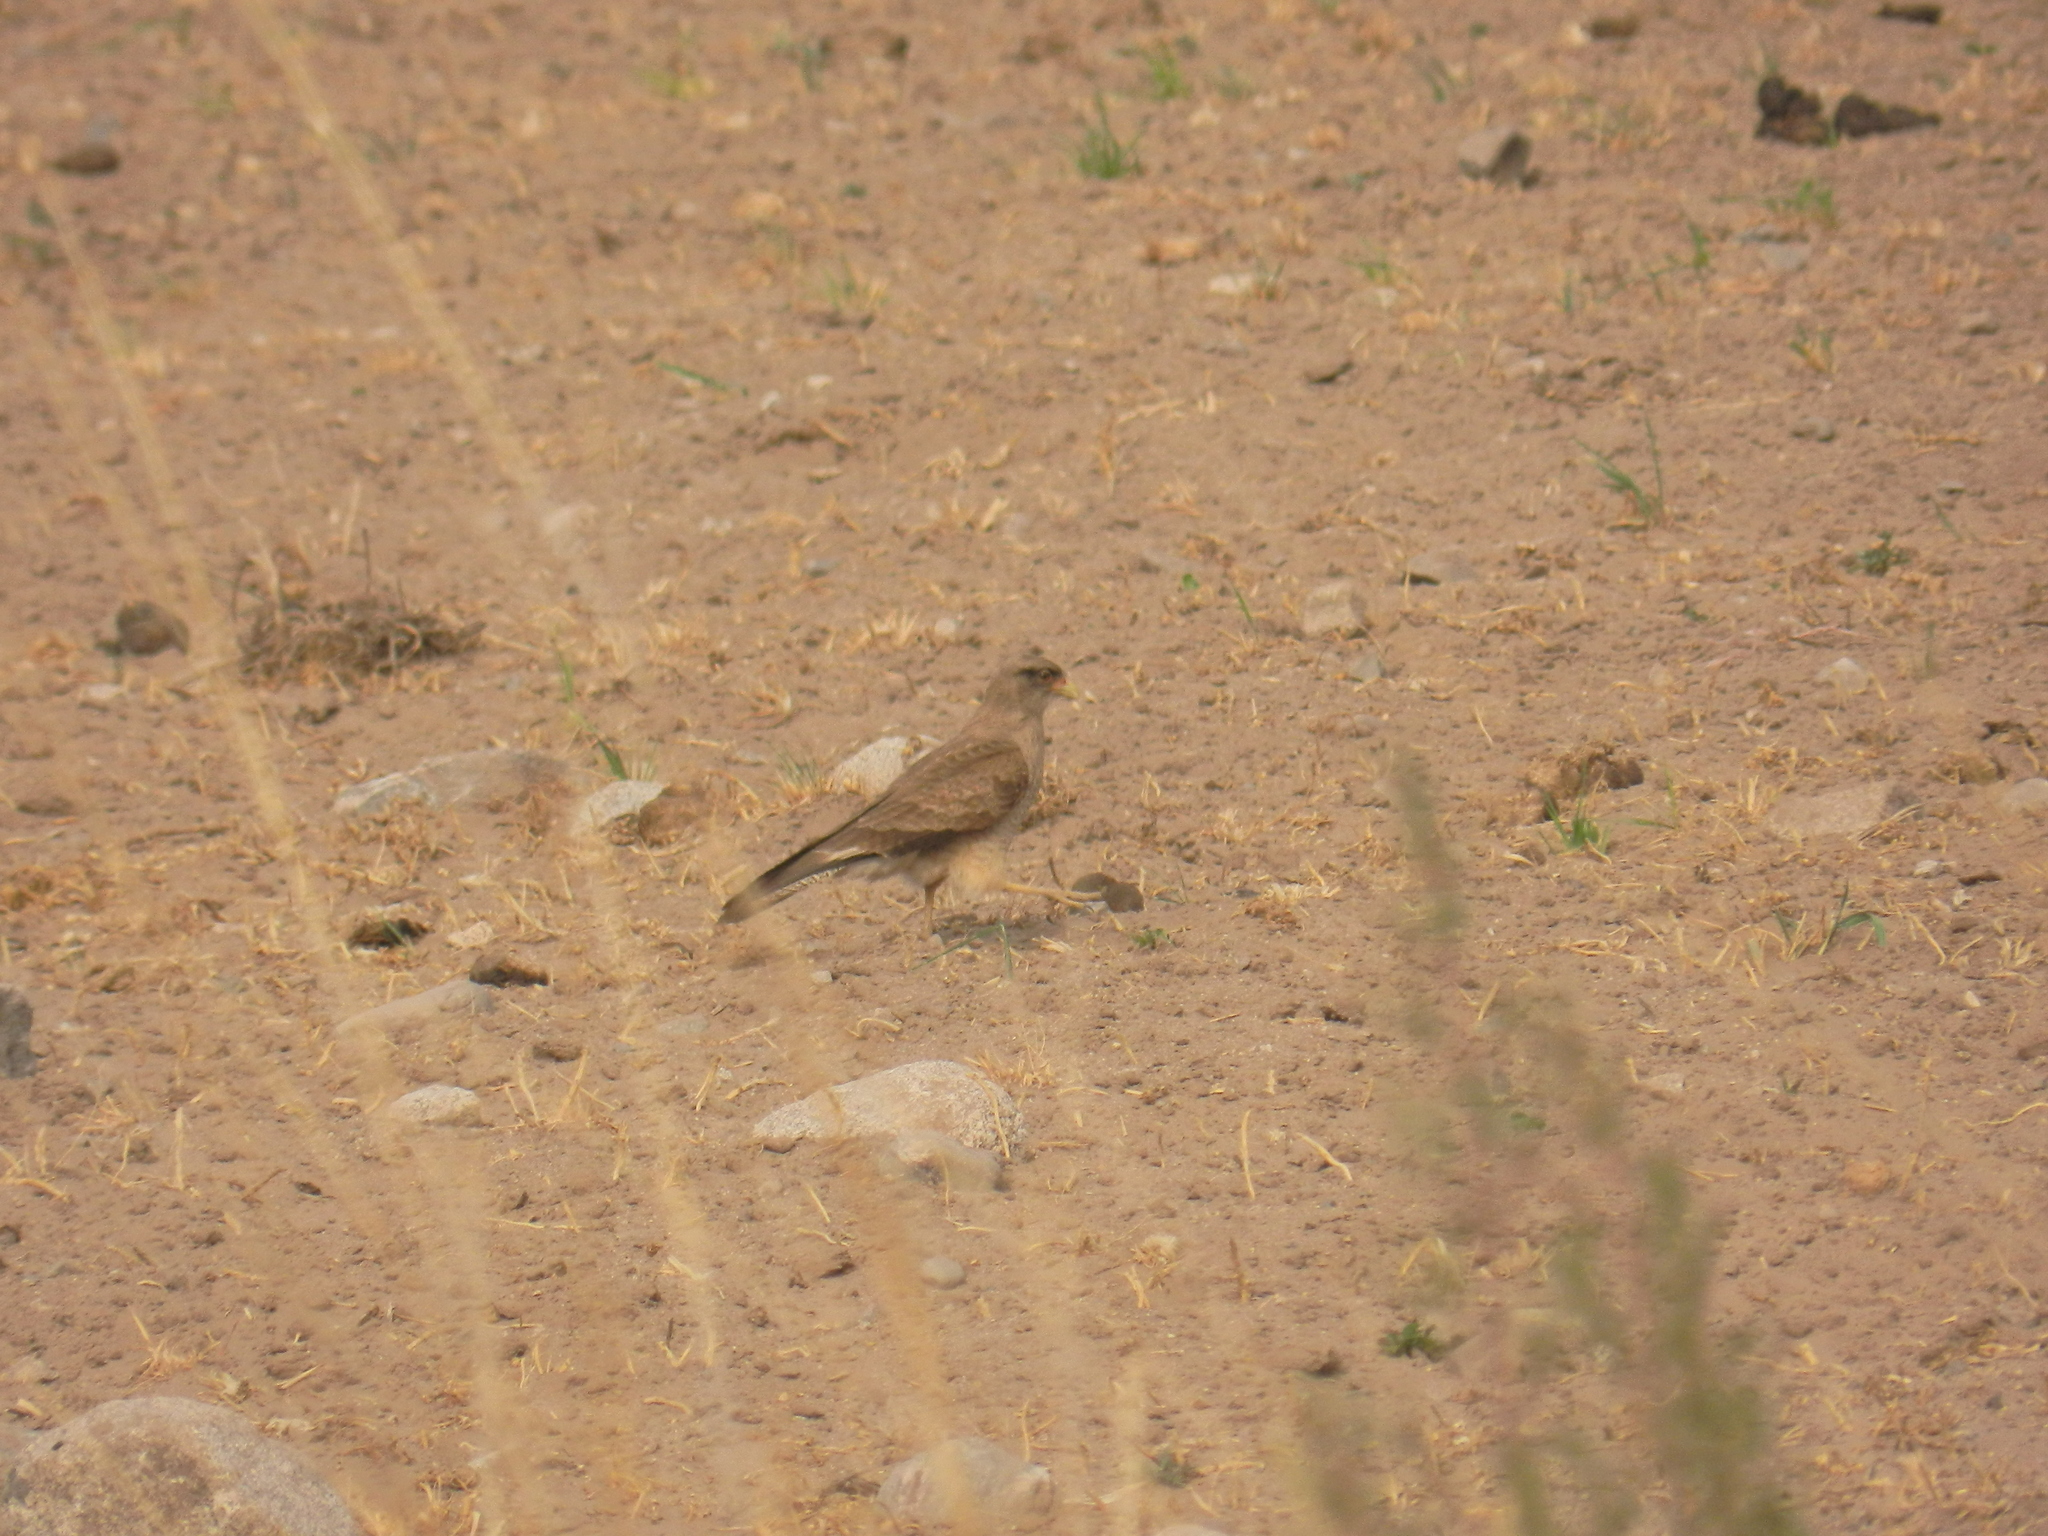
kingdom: Animalia
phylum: Chordata
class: Aves
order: Falconiformes
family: Falconidae
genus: Daptrius
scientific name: Daptrius
